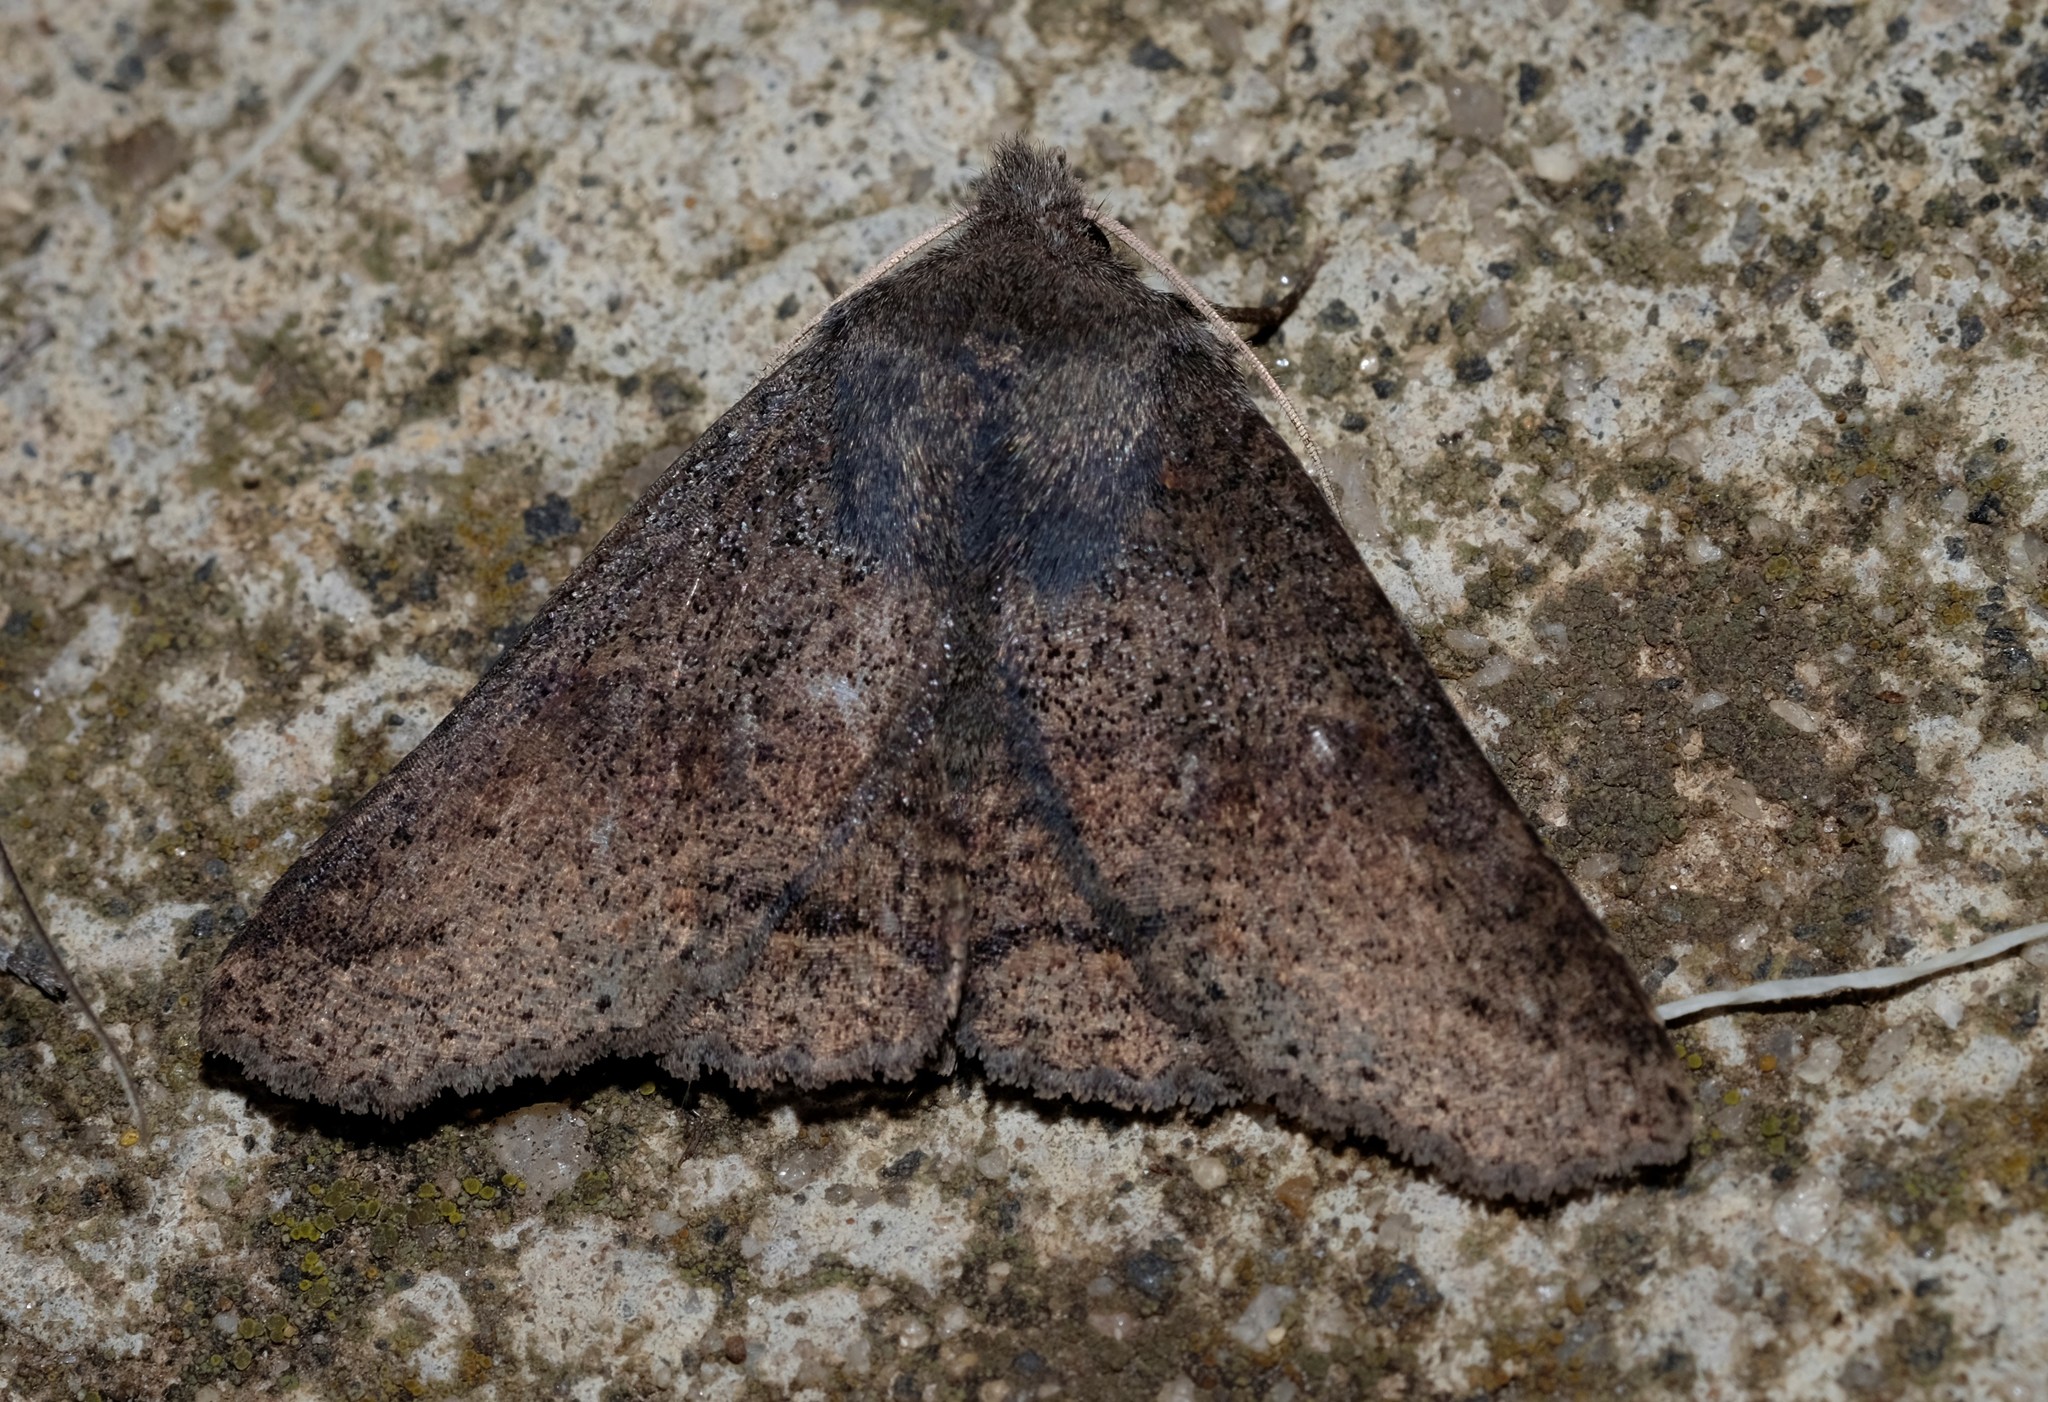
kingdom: Animalia
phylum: Arthropoda
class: Insecta
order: Lepidoptera
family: Erebidae
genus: Praxis
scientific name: Praxis pandesma
